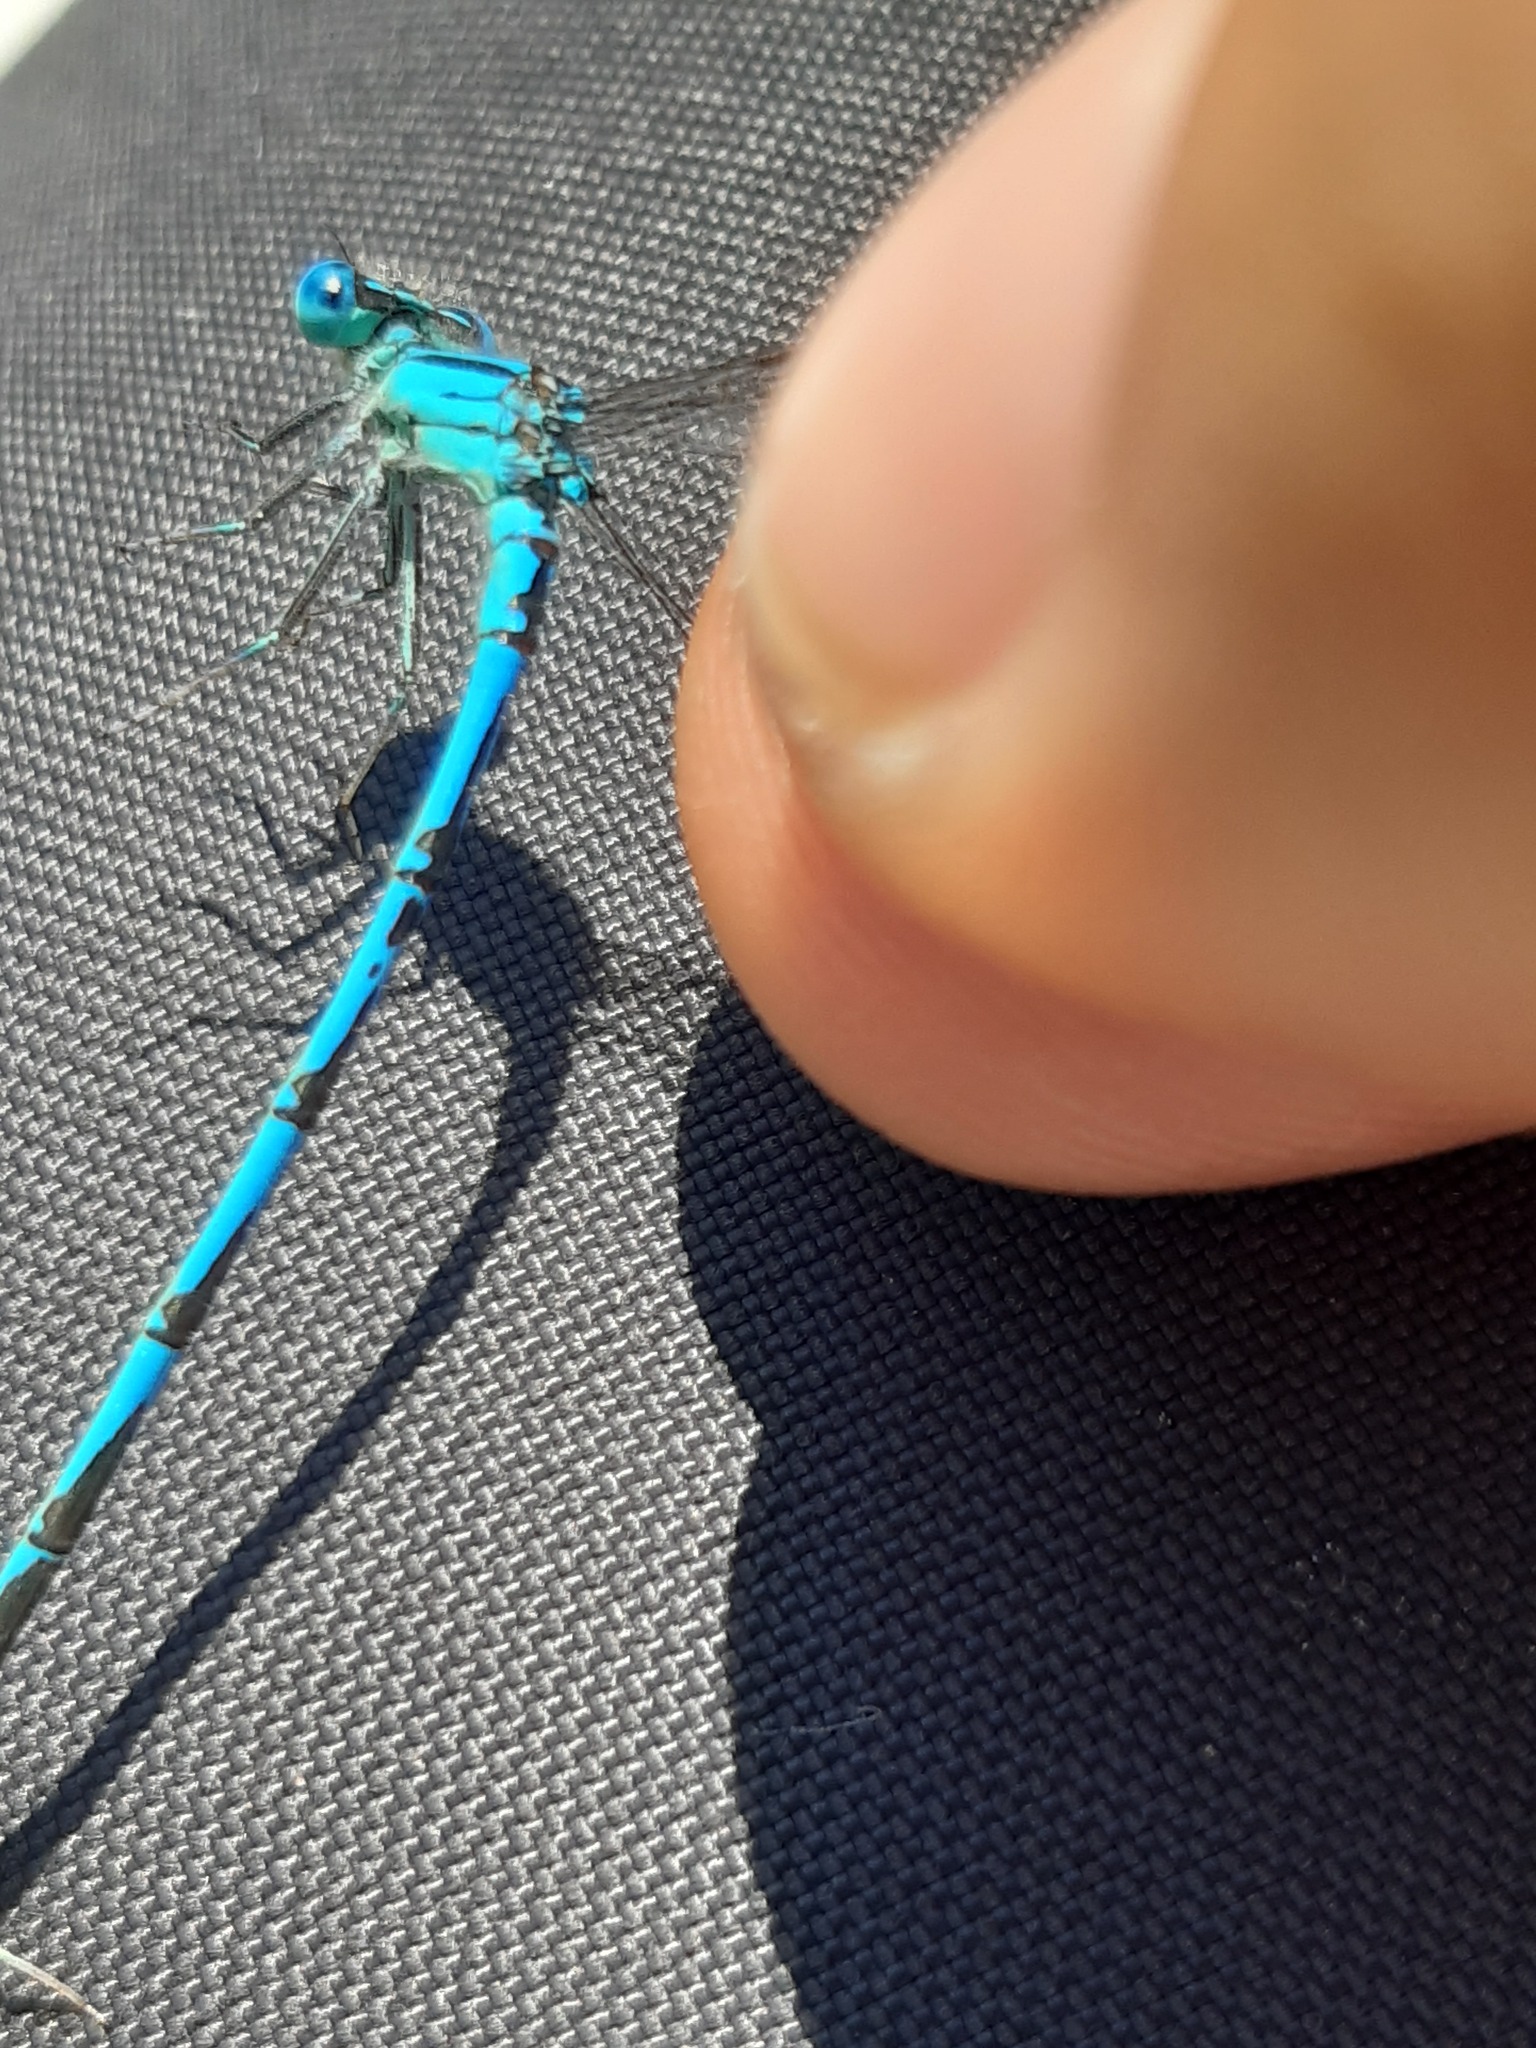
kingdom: Animalia
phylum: Arthropoda
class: Insecta
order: Odonata
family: Coenagrionidae
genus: Erythromma
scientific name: Erythromma lindenii
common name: Blue-eye
